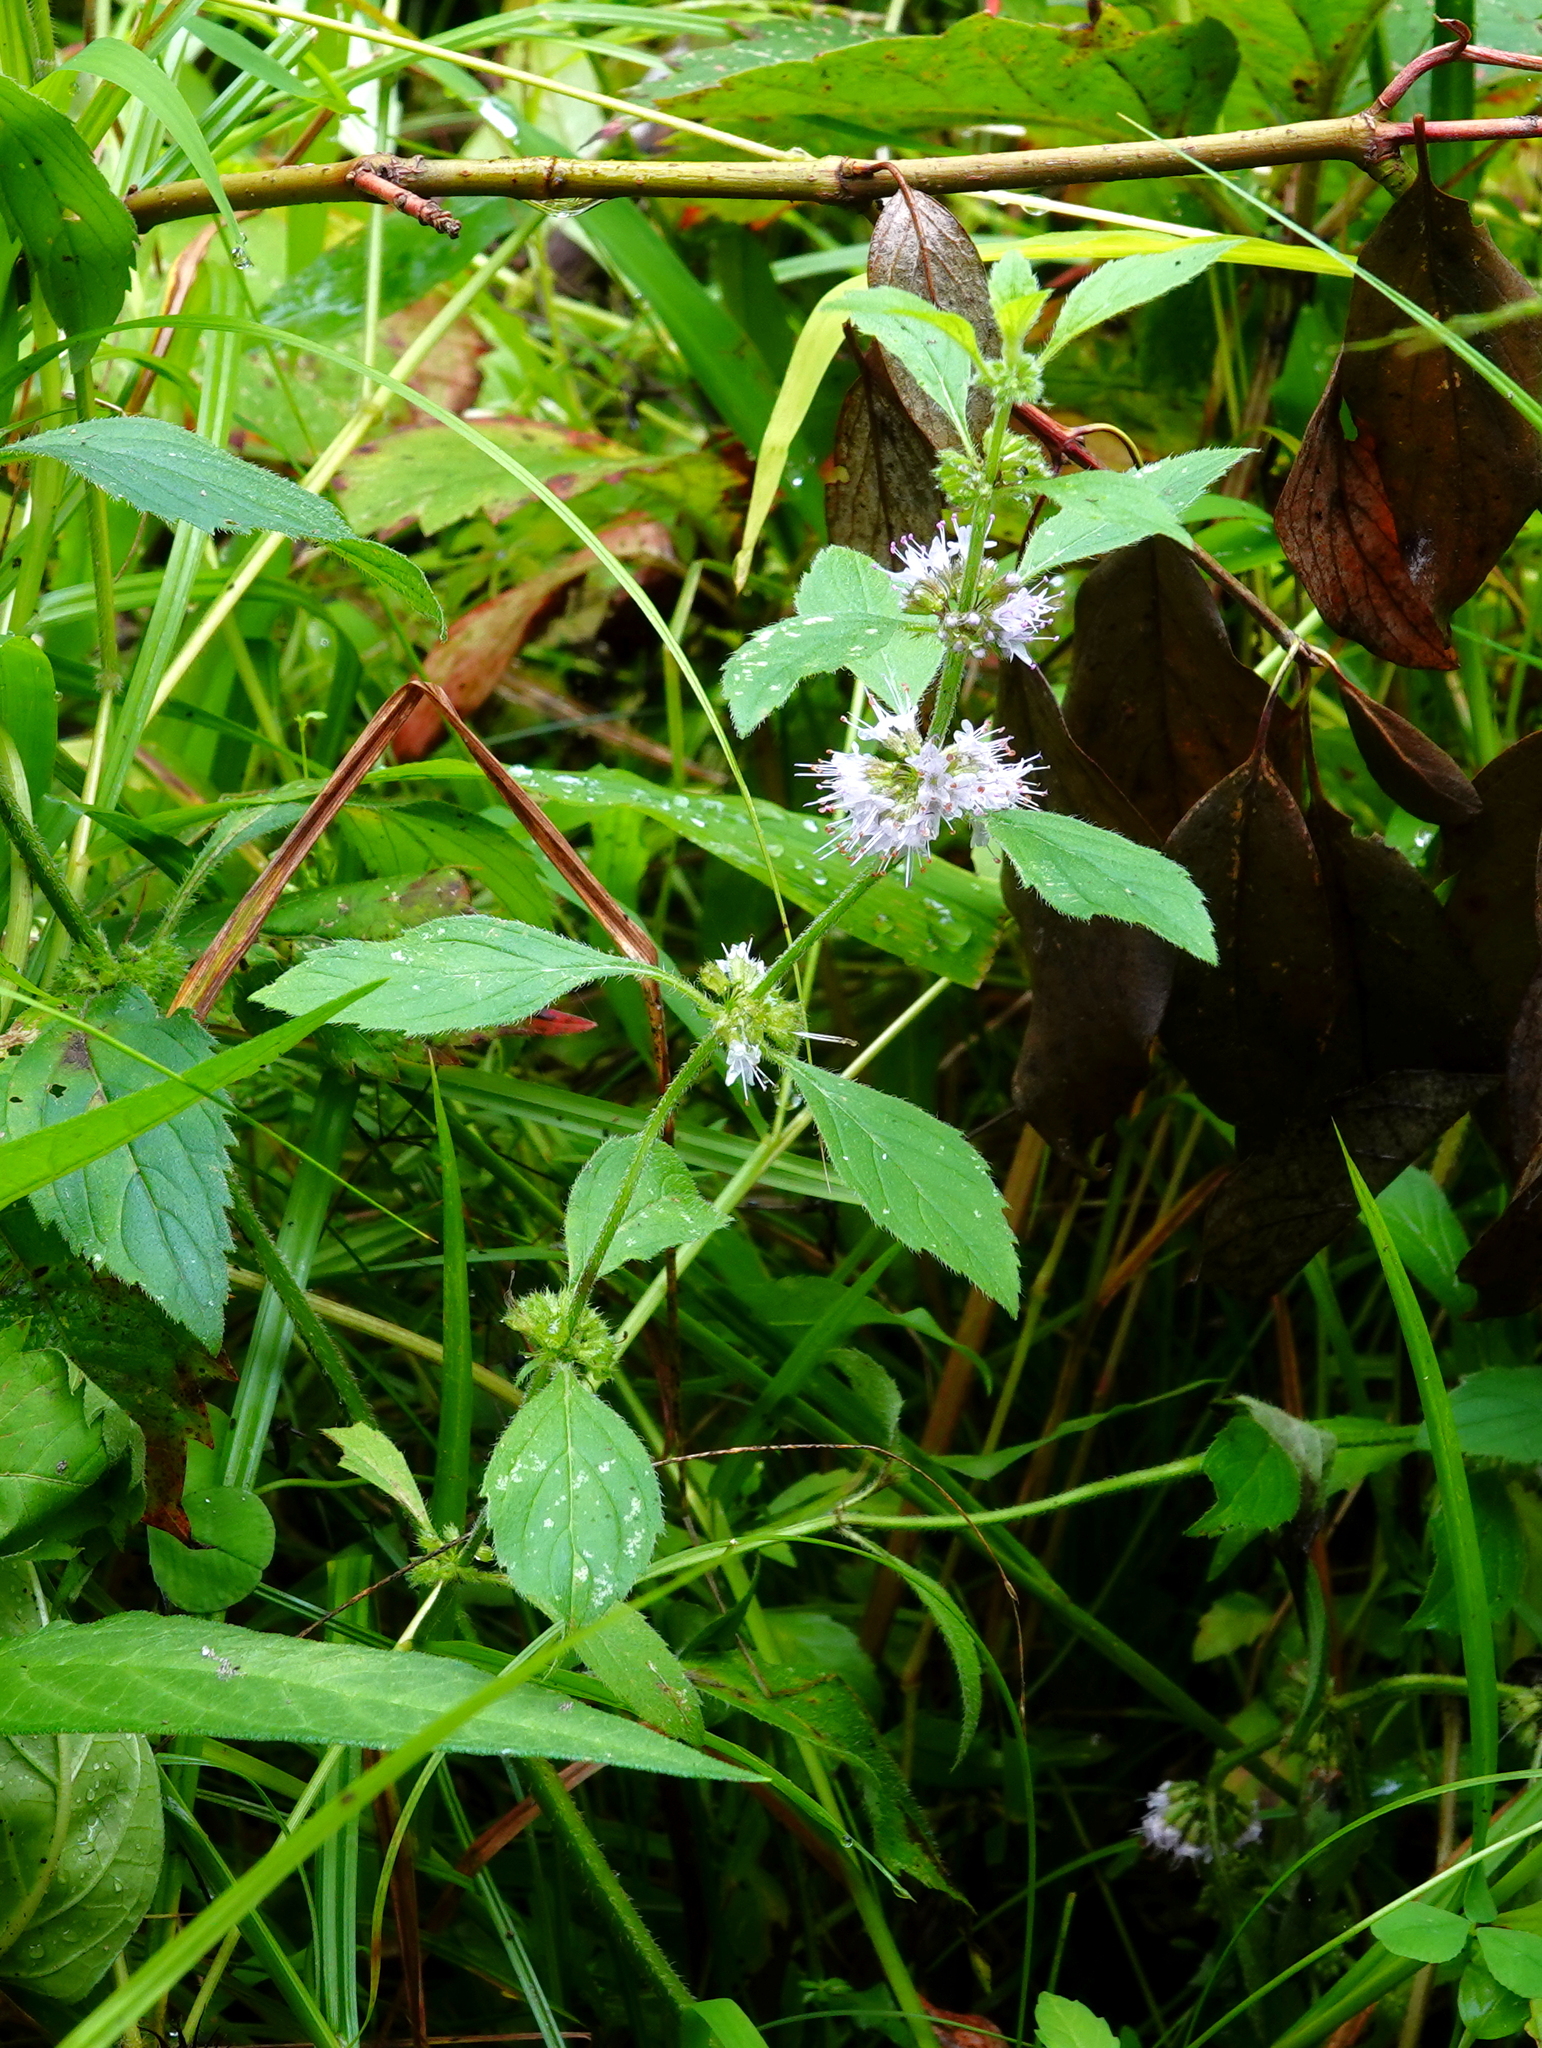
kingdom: Plantae
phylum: Tracheophyta
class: Magnoliopsida
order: Lamiales
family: Lamiaceae
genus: Mentha
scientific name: Mentha canadensis
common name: American corn mint
